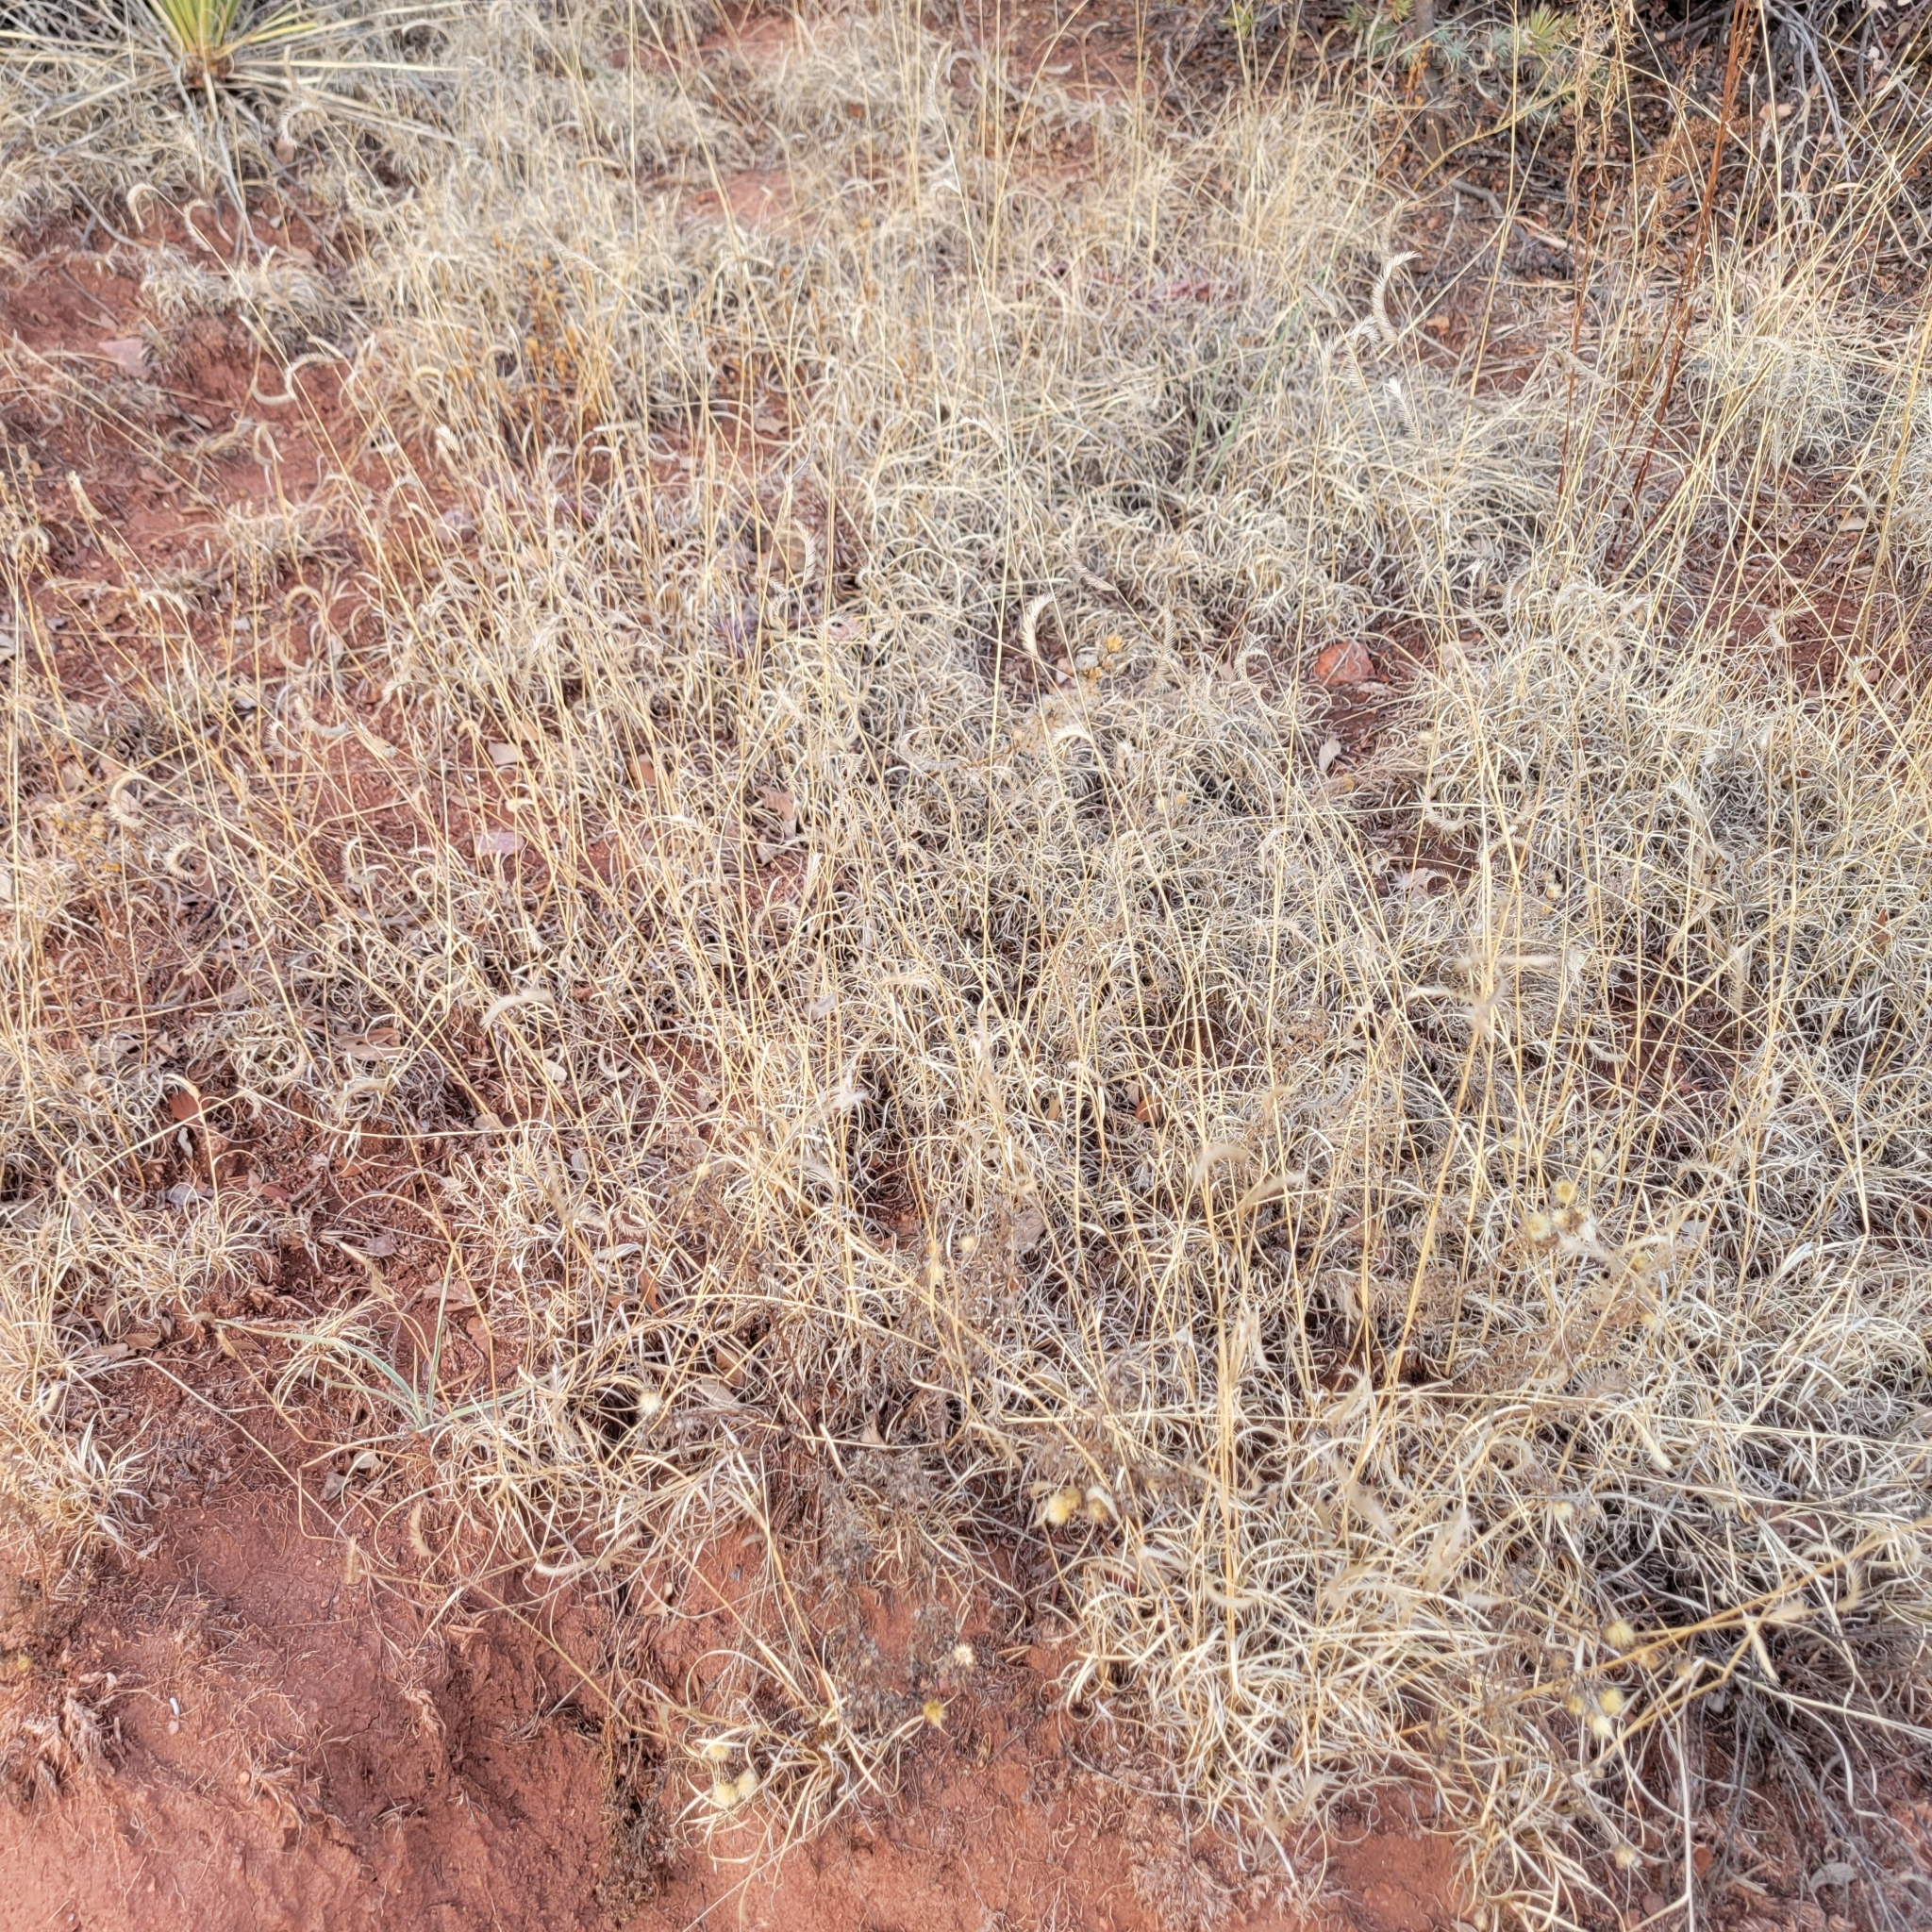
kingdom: Plantae
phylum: Tracheophyta
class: Liliopsida
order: Poales
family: Poaceae
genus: Bouteloua
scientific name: Bouteloua gracilis
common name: Blue grama
